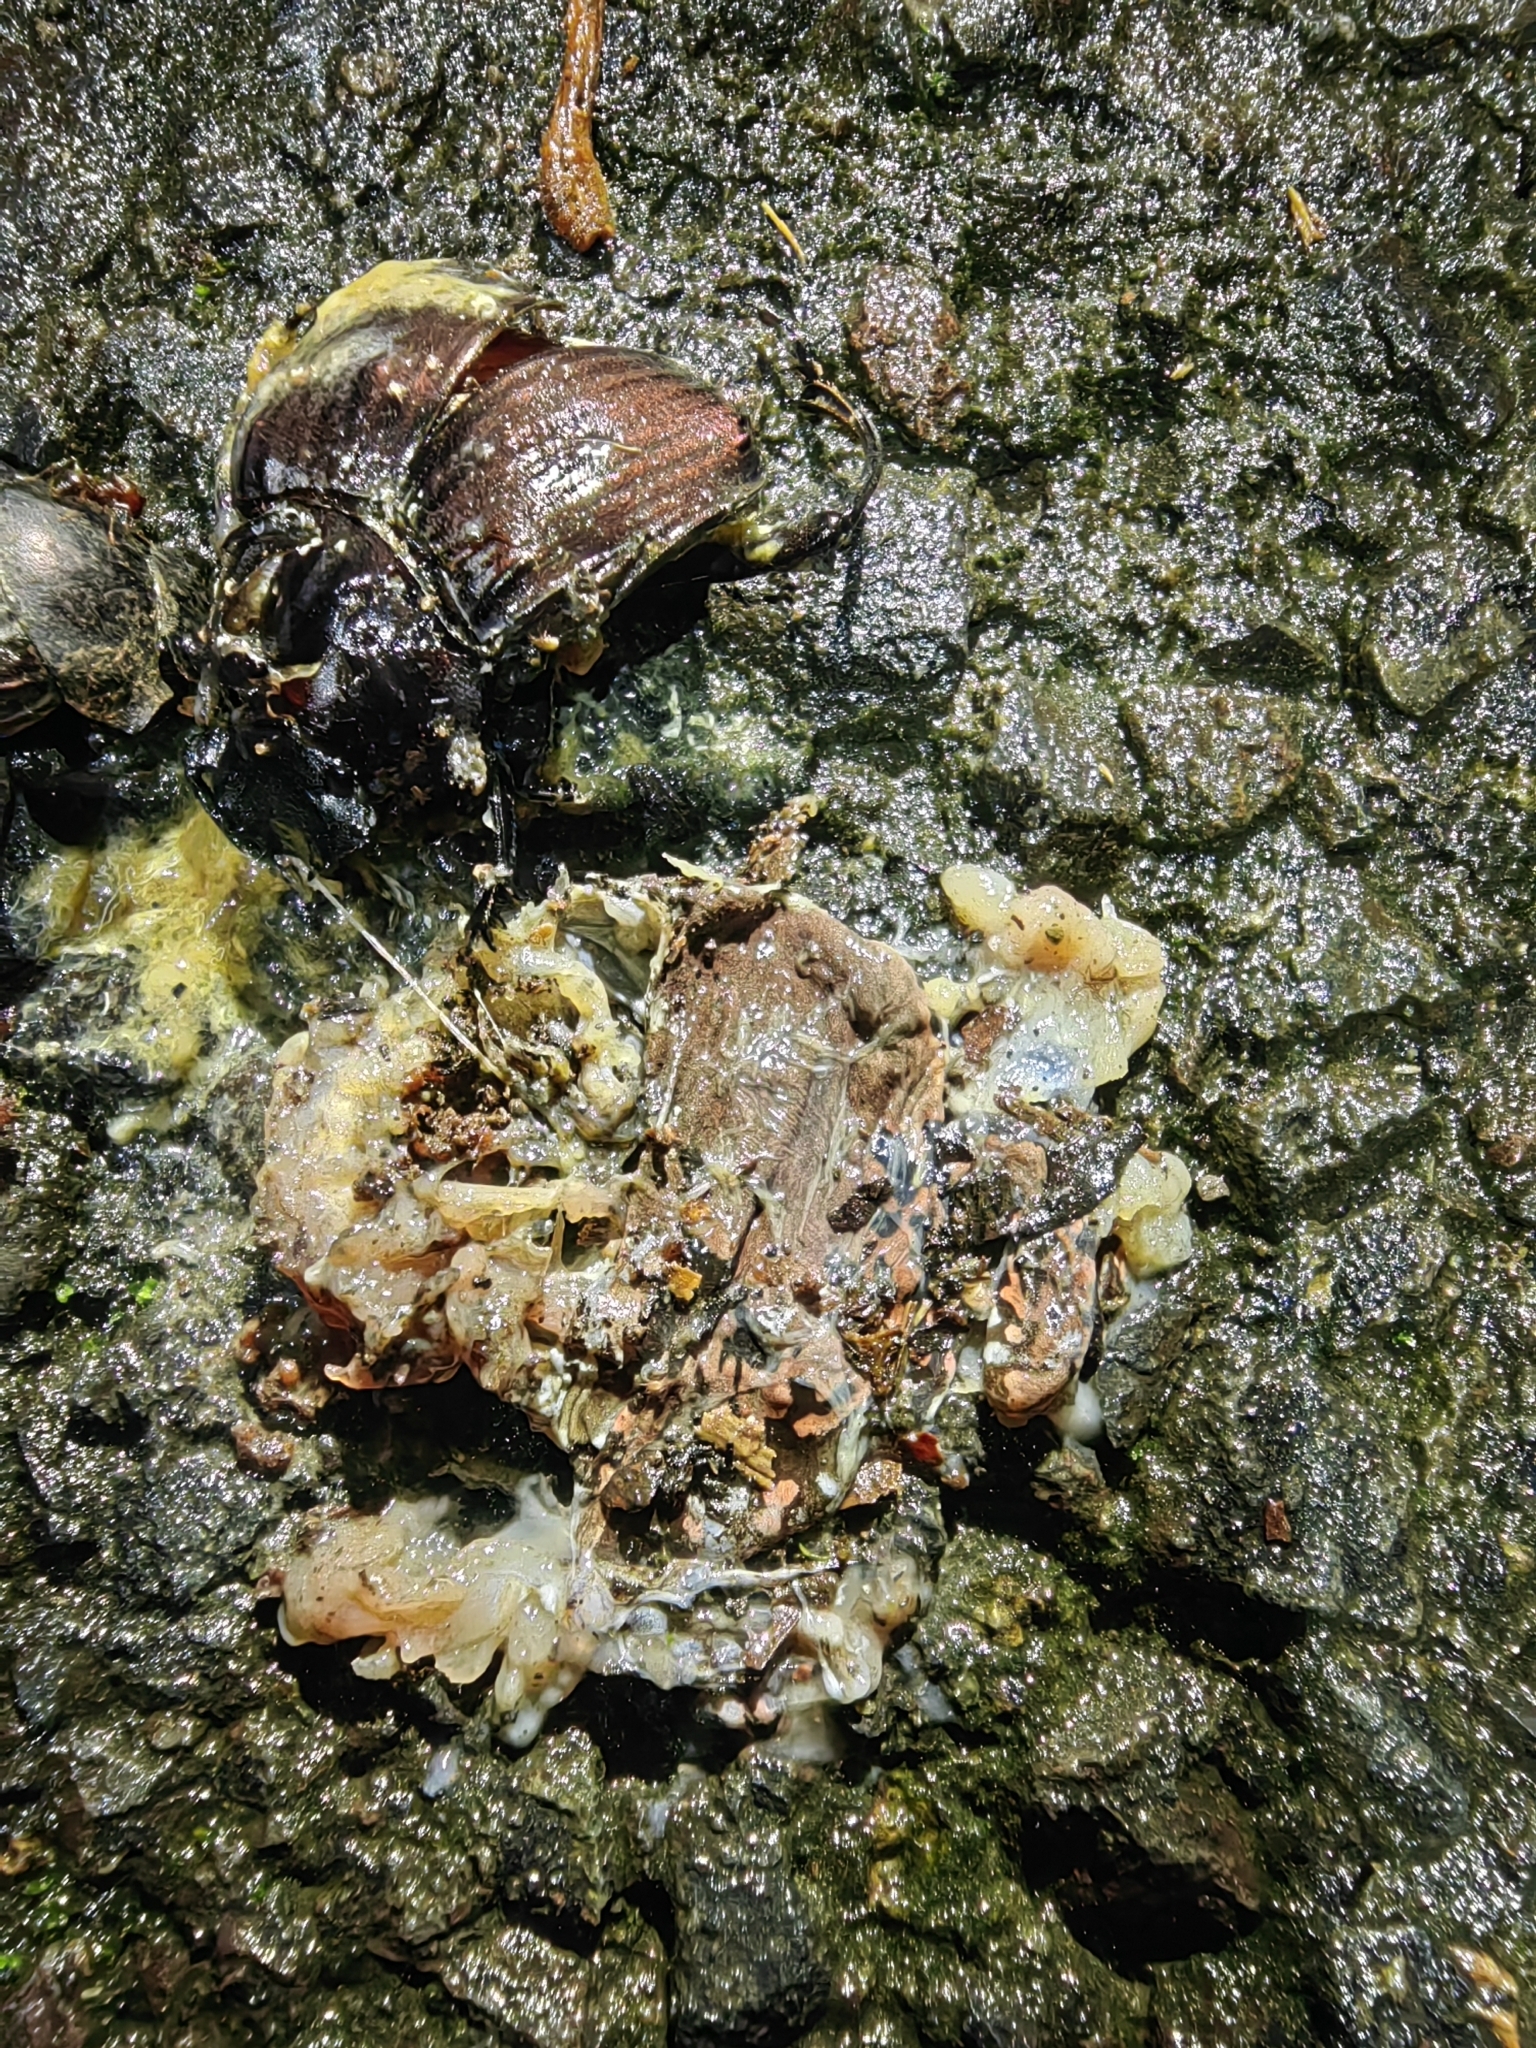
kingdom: Animalia
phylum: Chordata
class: Amphibia
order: Anura
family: Microhylidae
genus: Hypopachus
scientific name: Hypopachus variolosus
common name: Sheep frog
